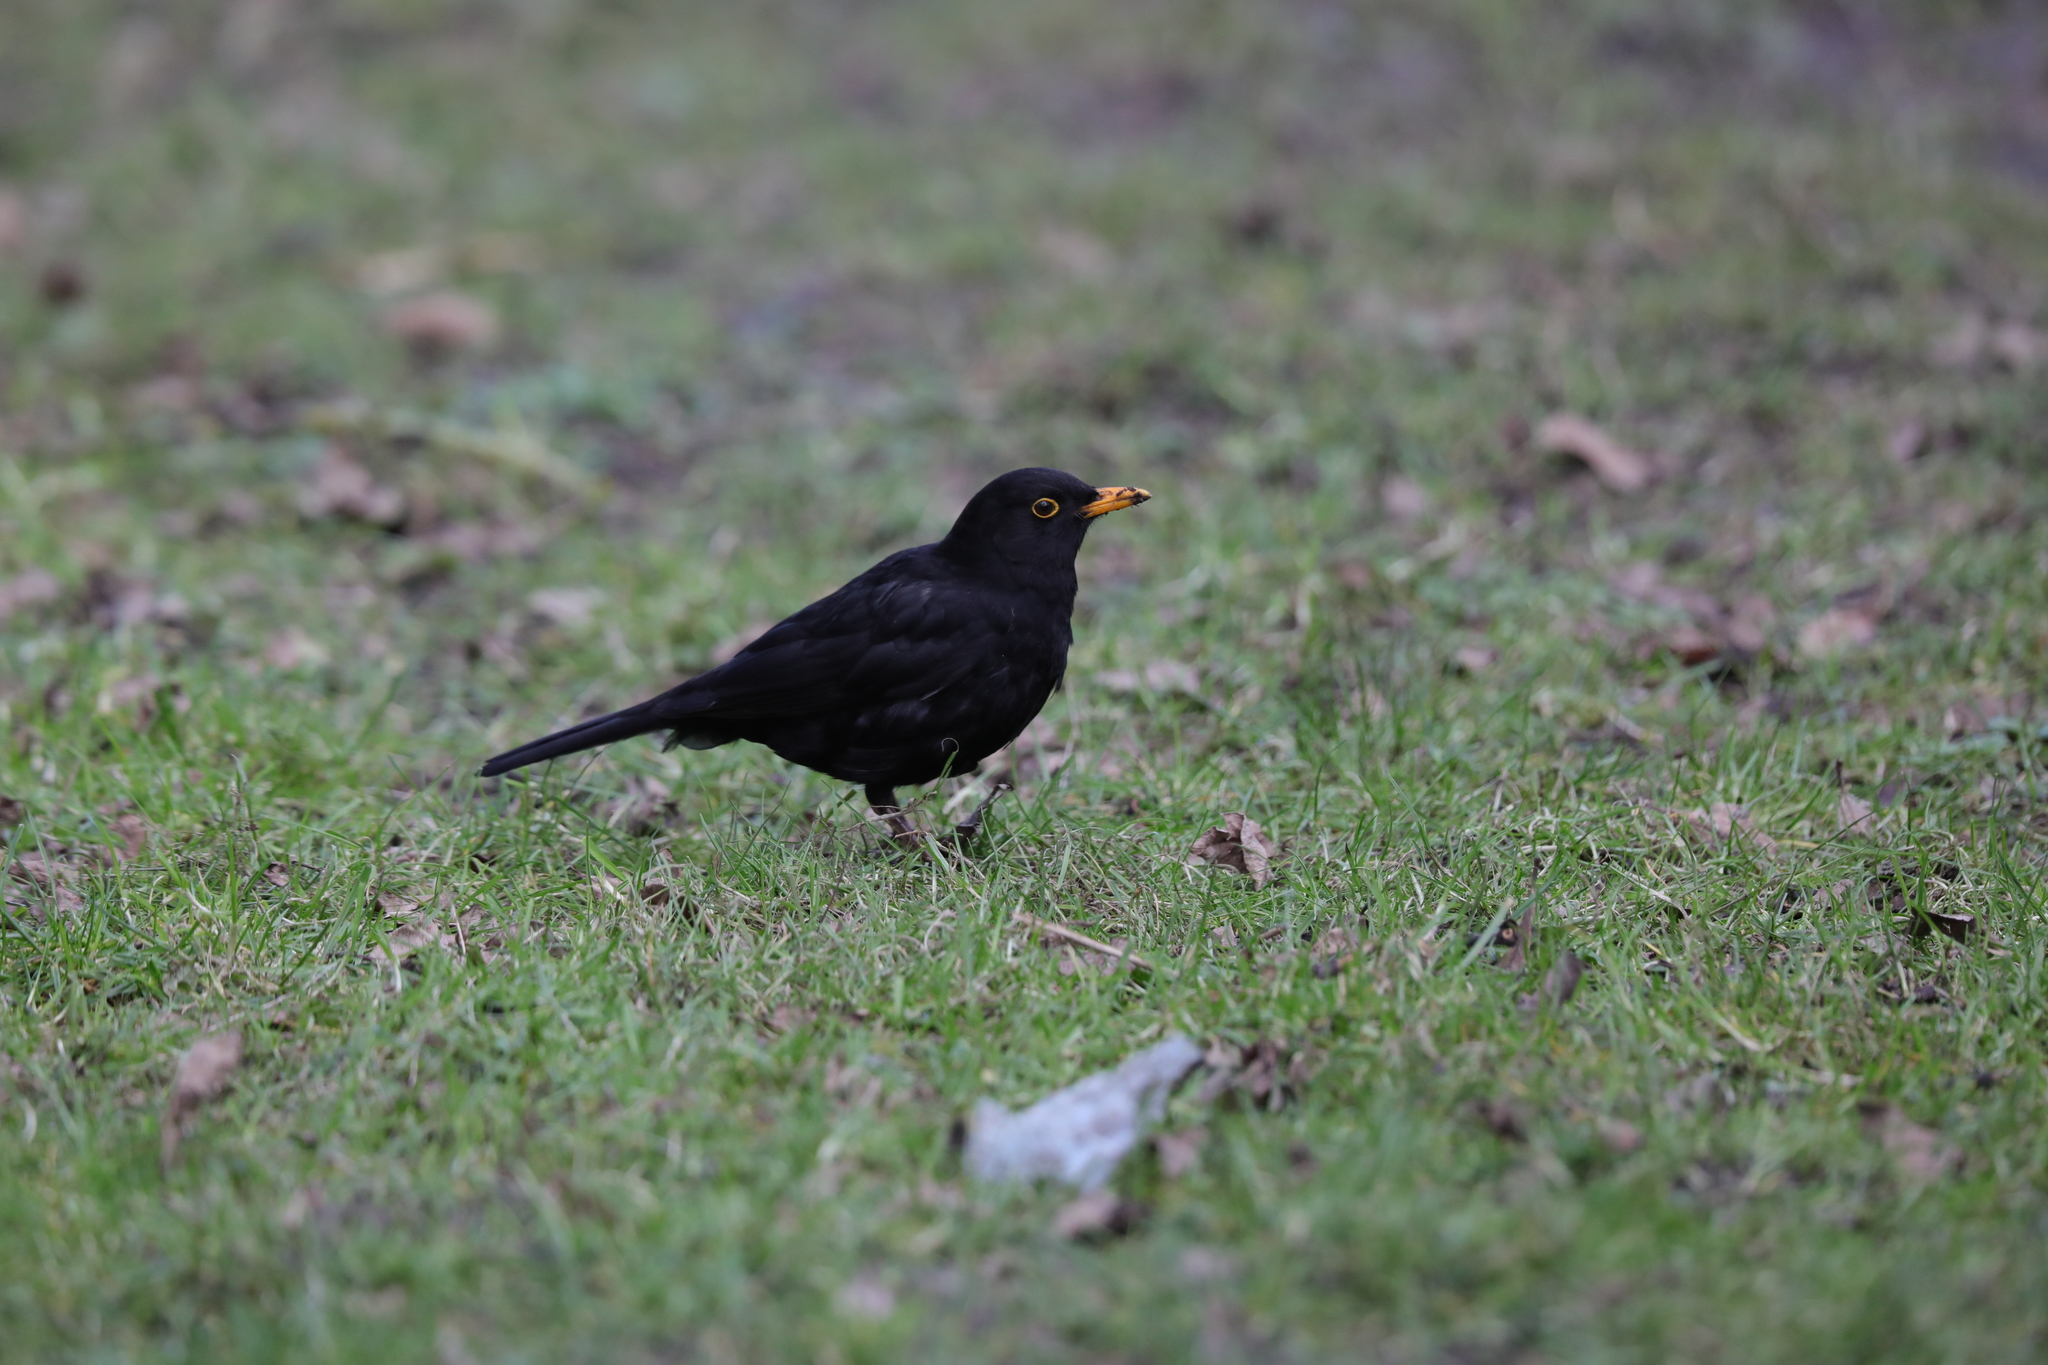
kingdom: Animalia
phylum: Chordata
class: Aves
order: Passeriformes
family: Turdidae
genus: Turdus
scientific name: Turdus merula
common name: Common blackbird
